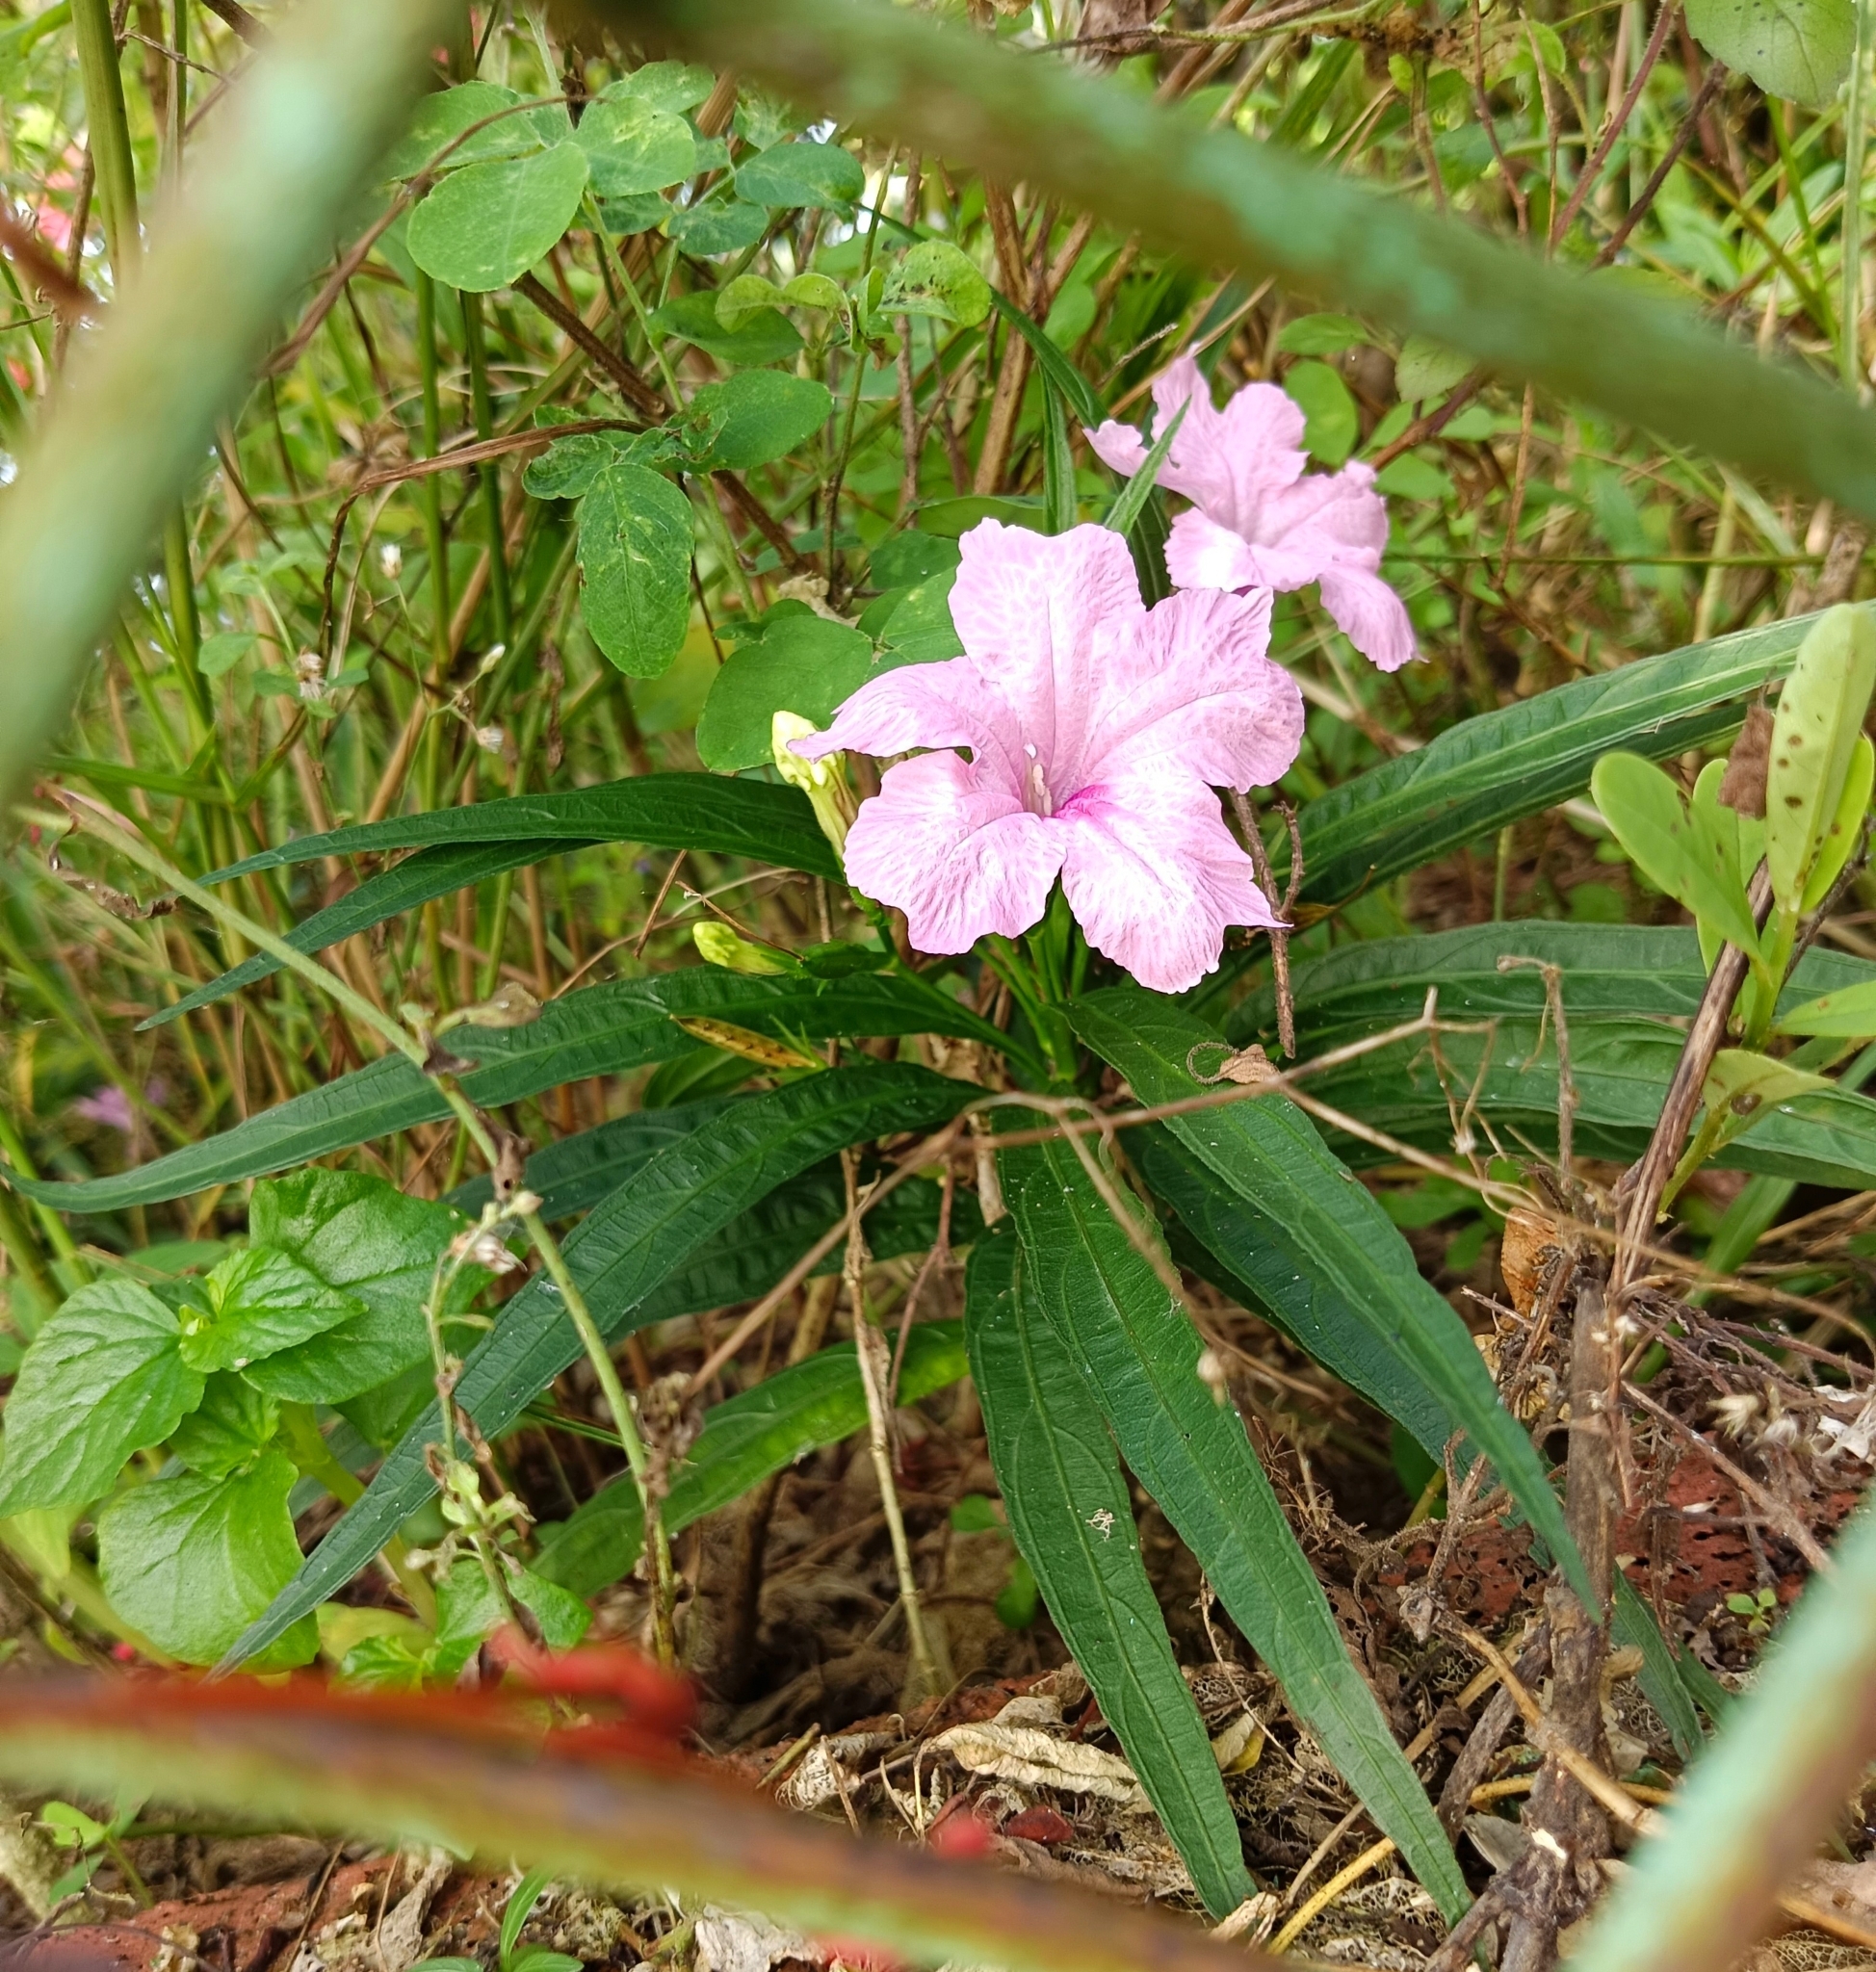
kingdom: Plantae
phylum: Tracheophyta
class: Magnoliopsida
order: Lamiales
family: Acanthaceae
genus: Ruellia
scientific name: Ruellia simplex
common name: Softseed wild petunia
